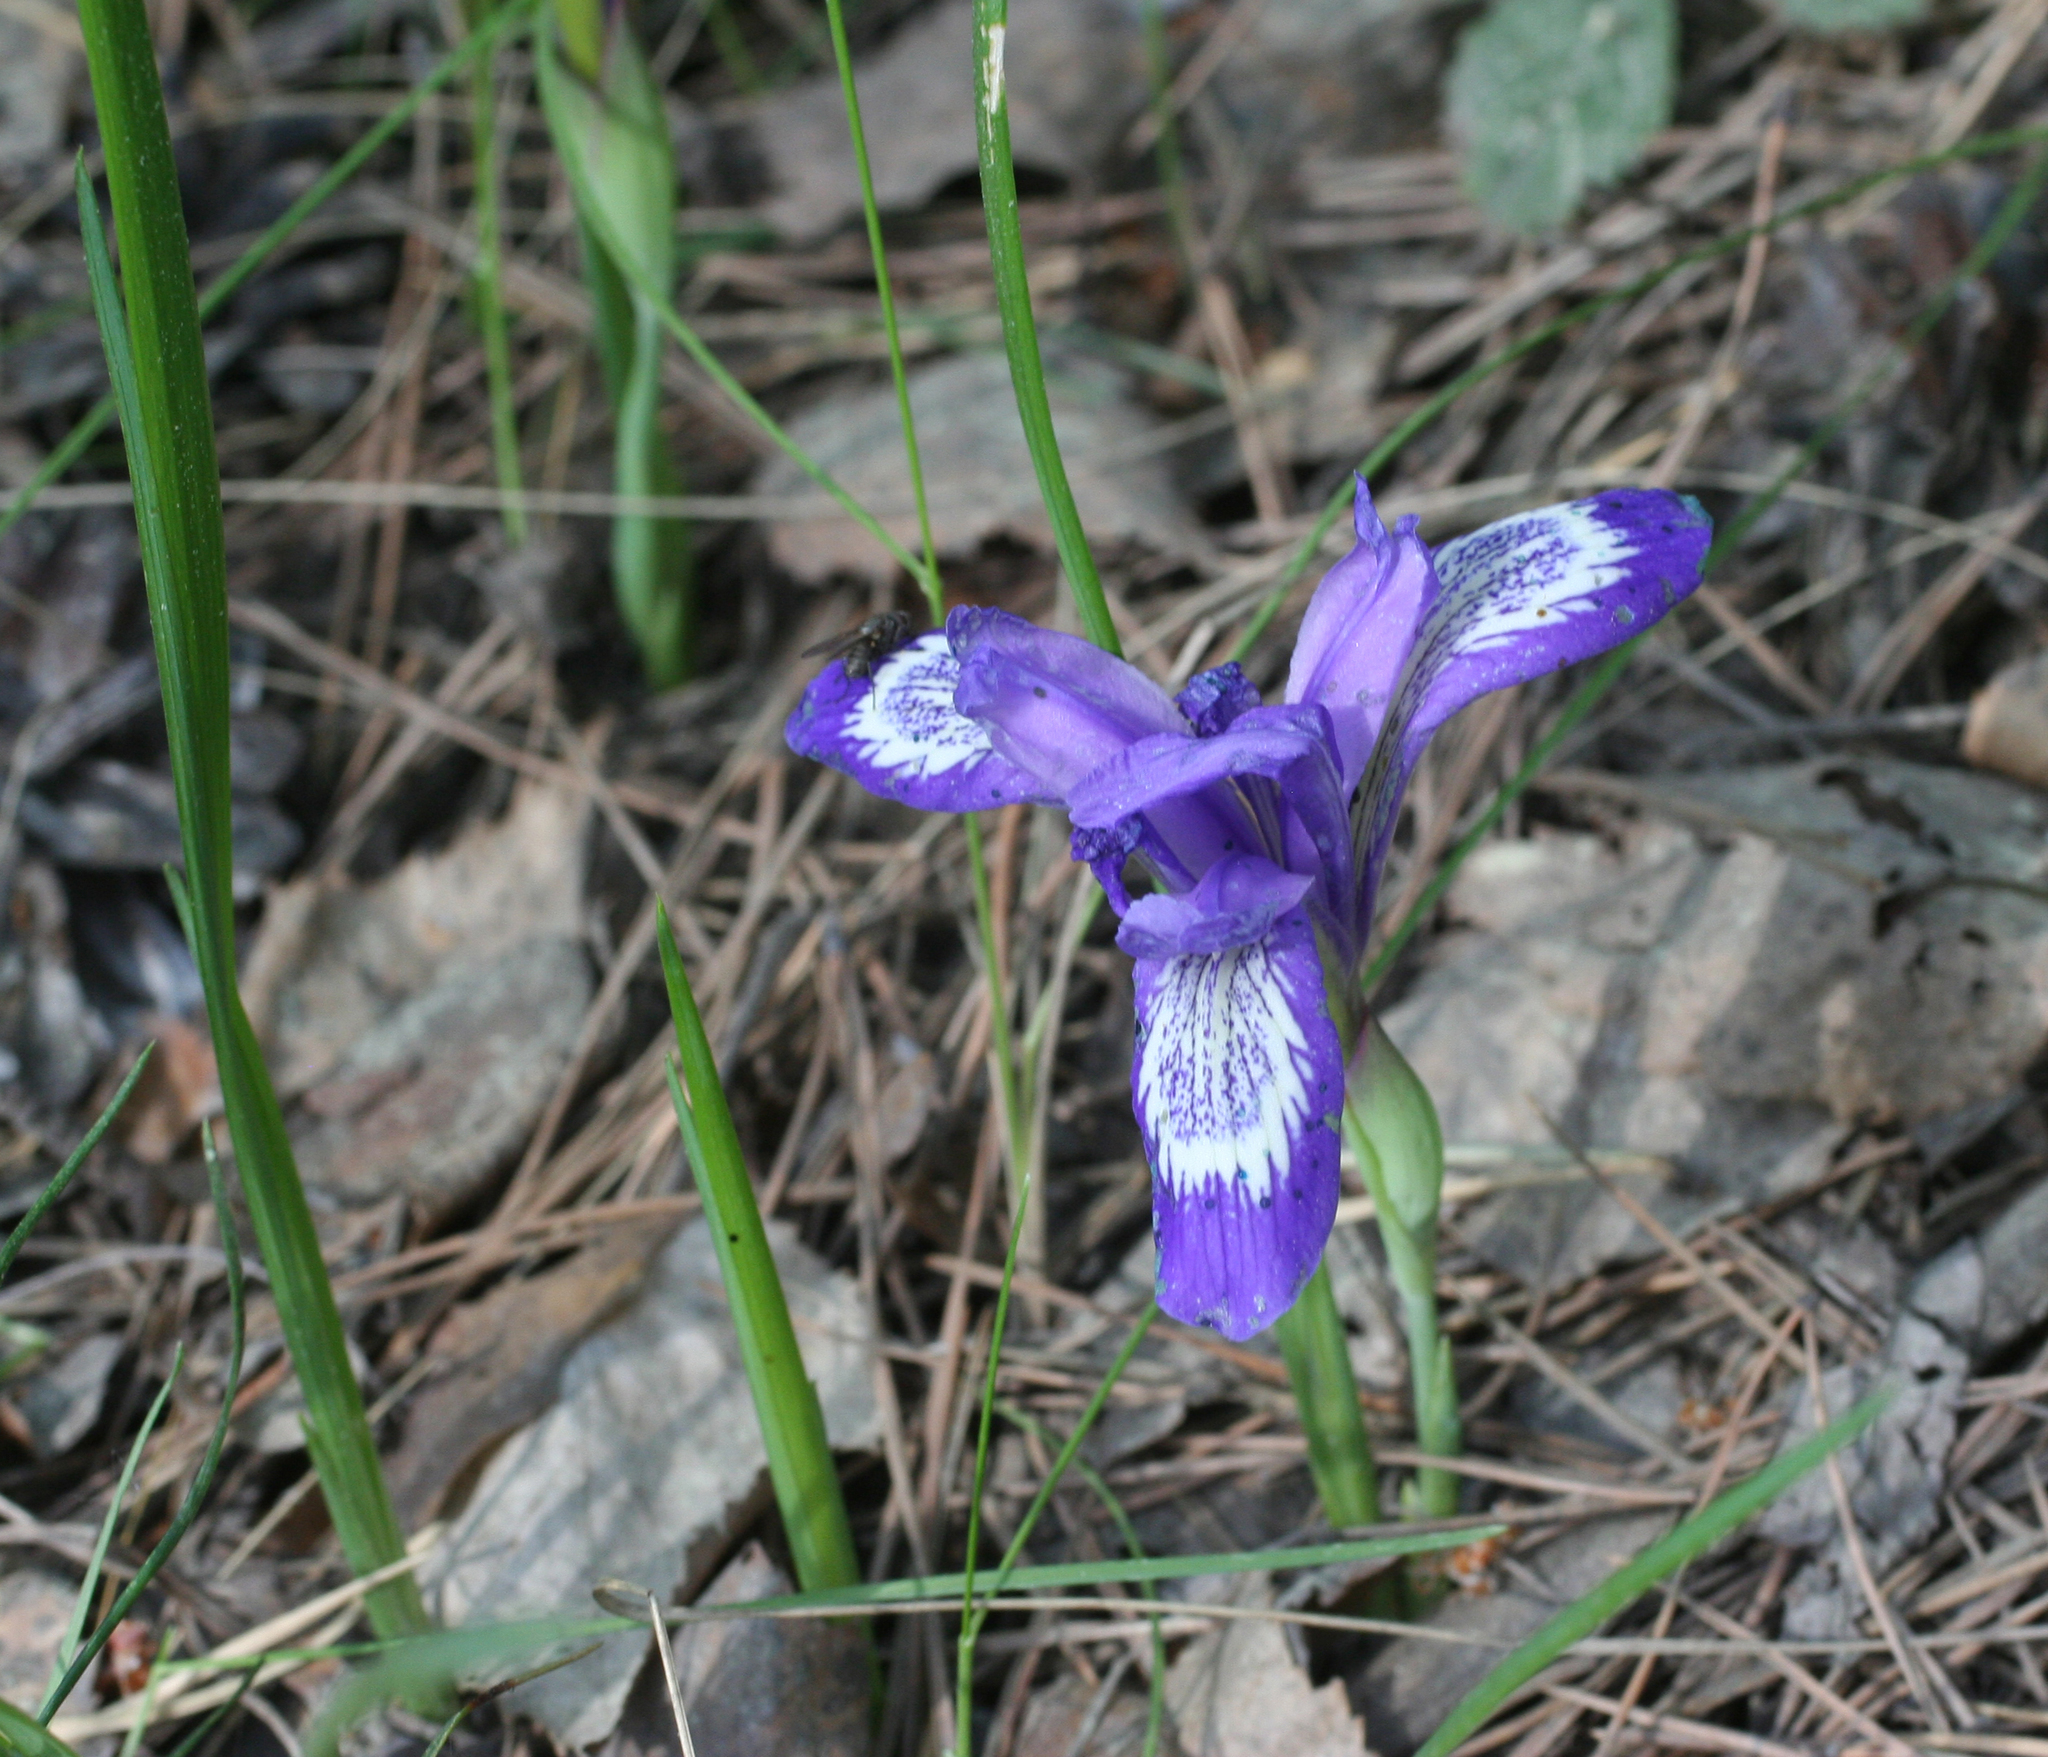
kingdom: Plantae
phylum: Tracheophyta
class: Liliopsida
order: Asparagales
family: Iridaceae
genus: Iris
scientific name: Iris ruthenica
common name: Purple-bract iris
